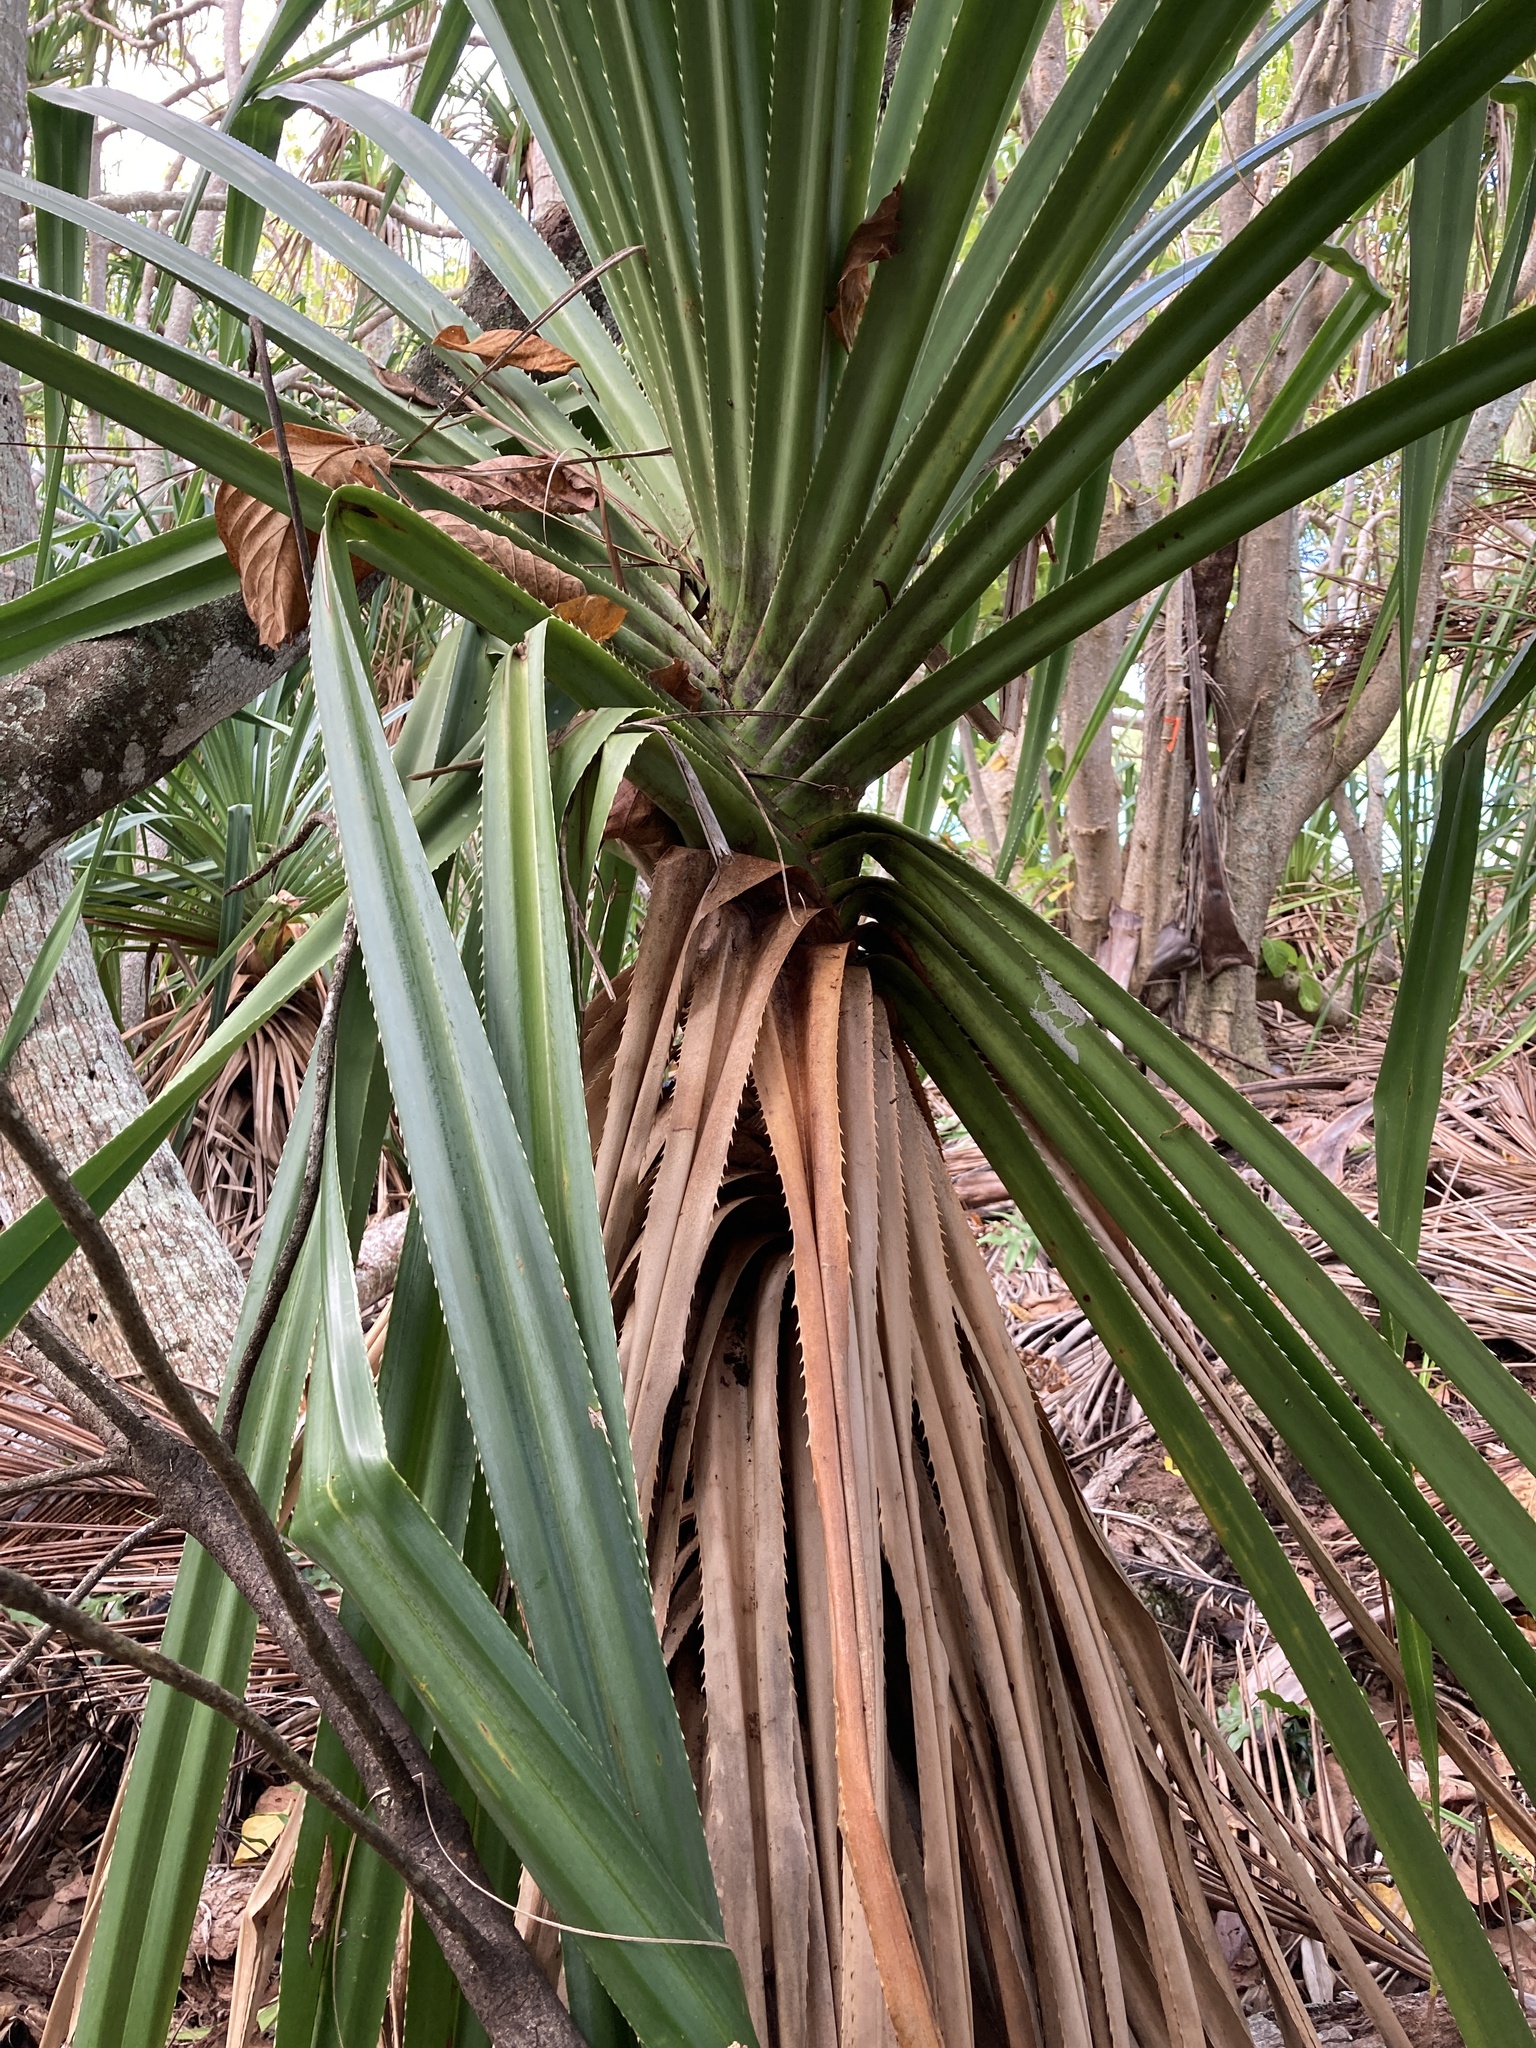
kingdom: Plantae
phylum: Tracheophyta
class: Liliopsida
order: Pandanales
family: Pandanaceae
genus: Pandanus
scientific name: Pandanus tectorius
